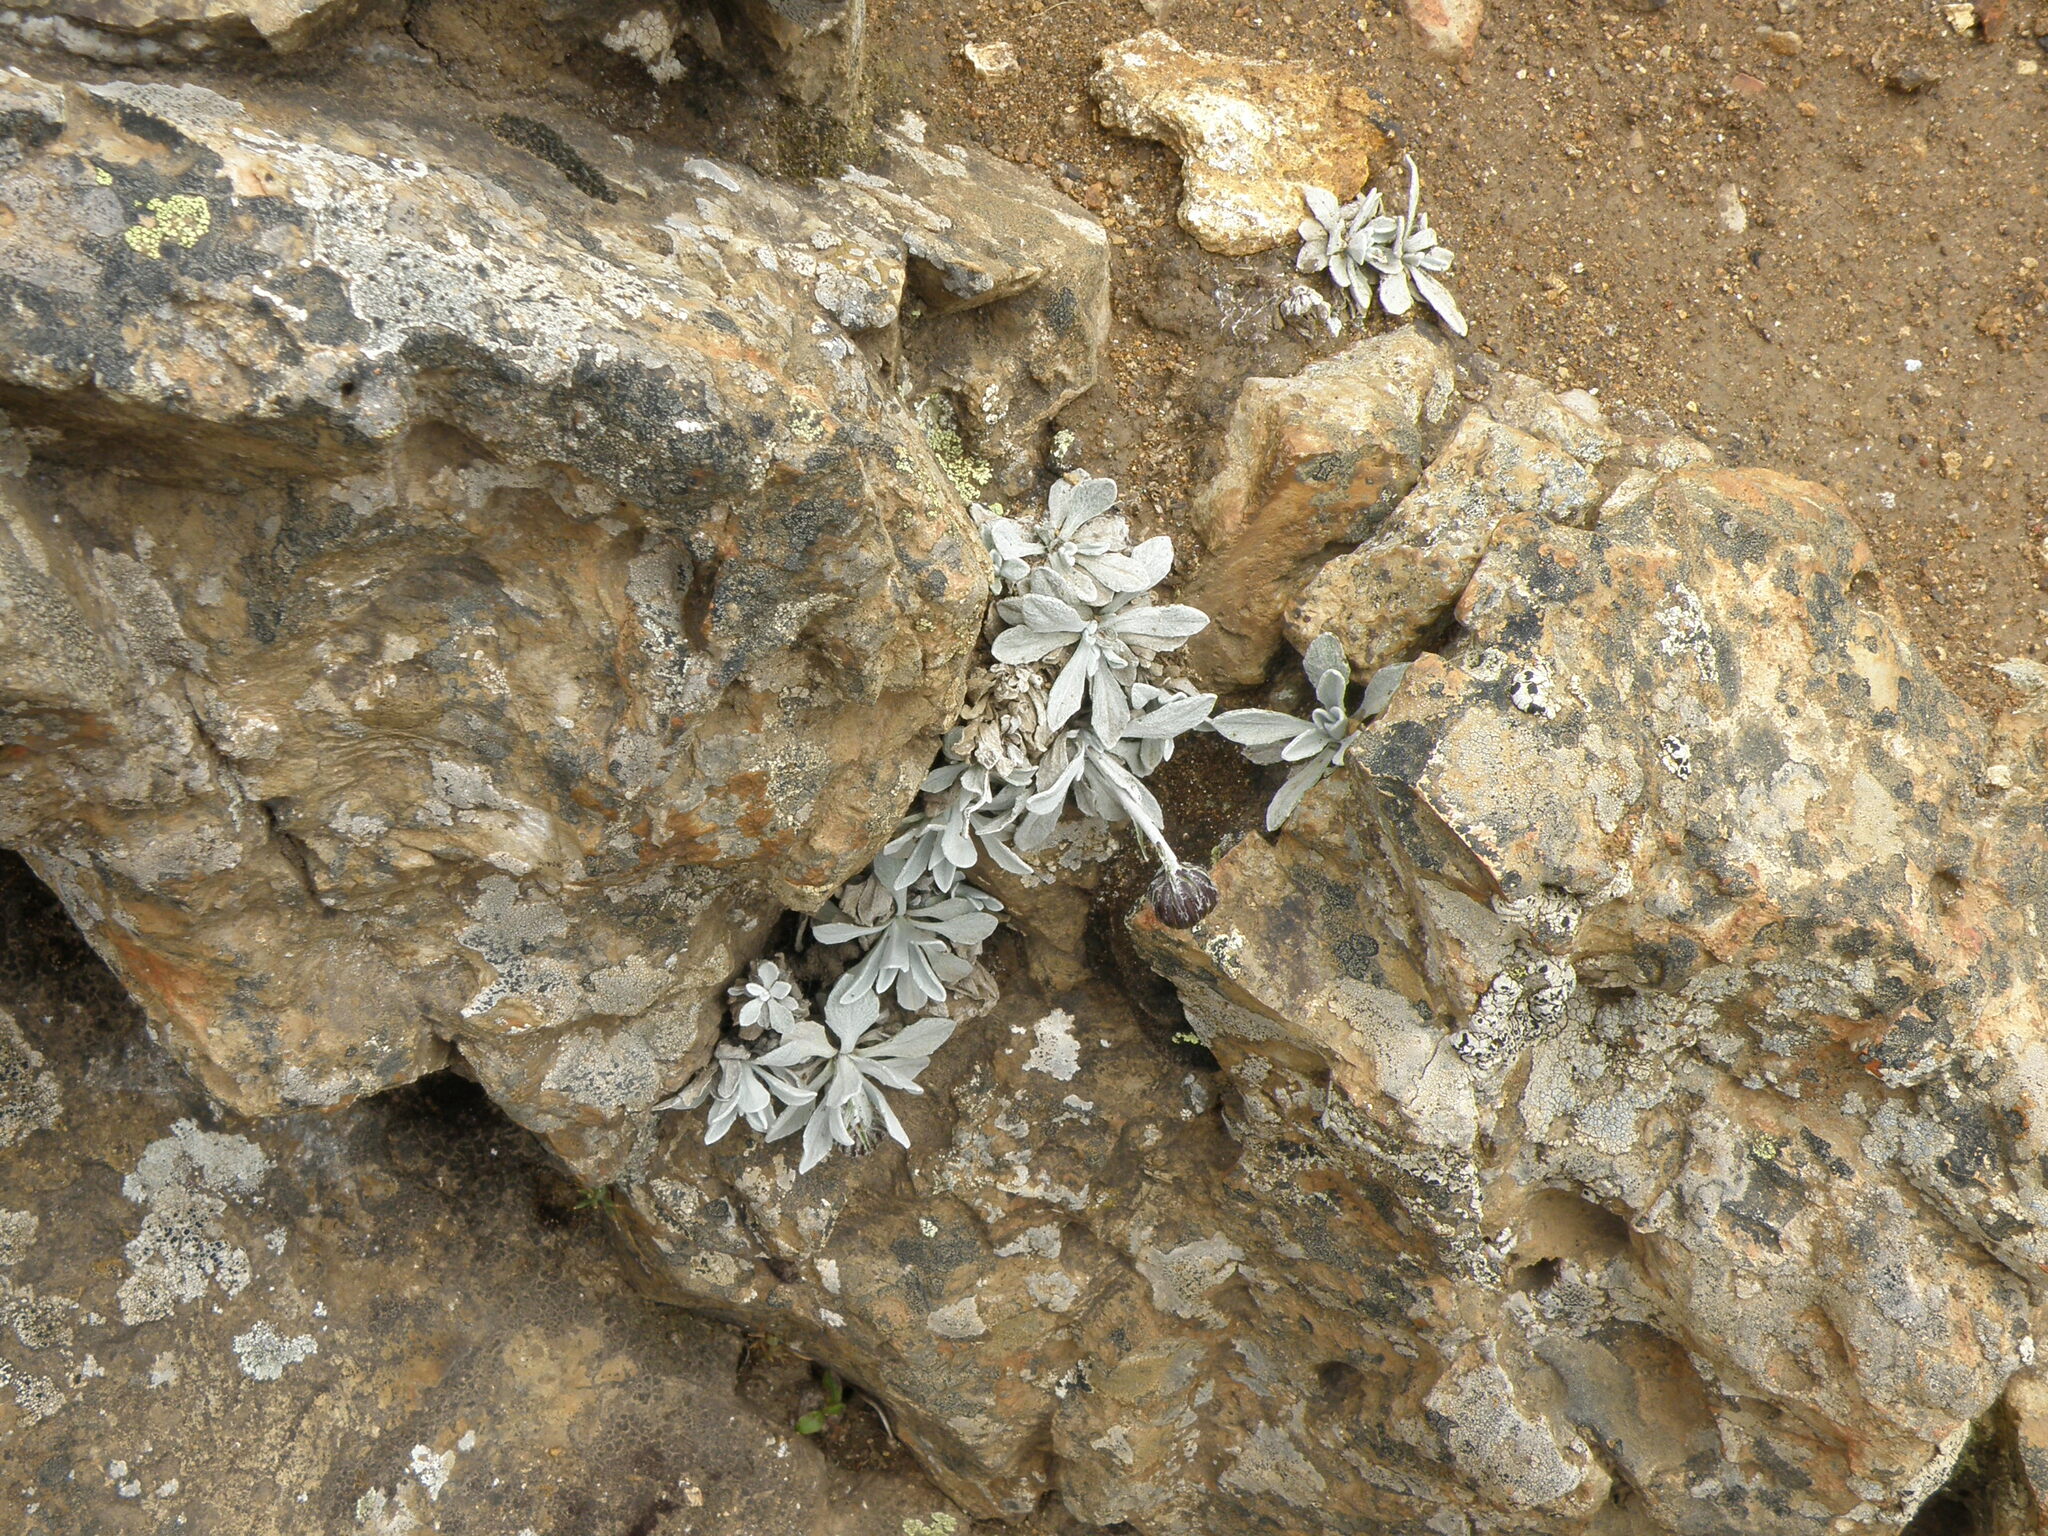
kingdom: Plantae
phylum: Tracheophyta
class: Magnoliopsida
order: Asterales
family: Asteraceae
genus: Culcitium
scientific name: Culcitium humile
